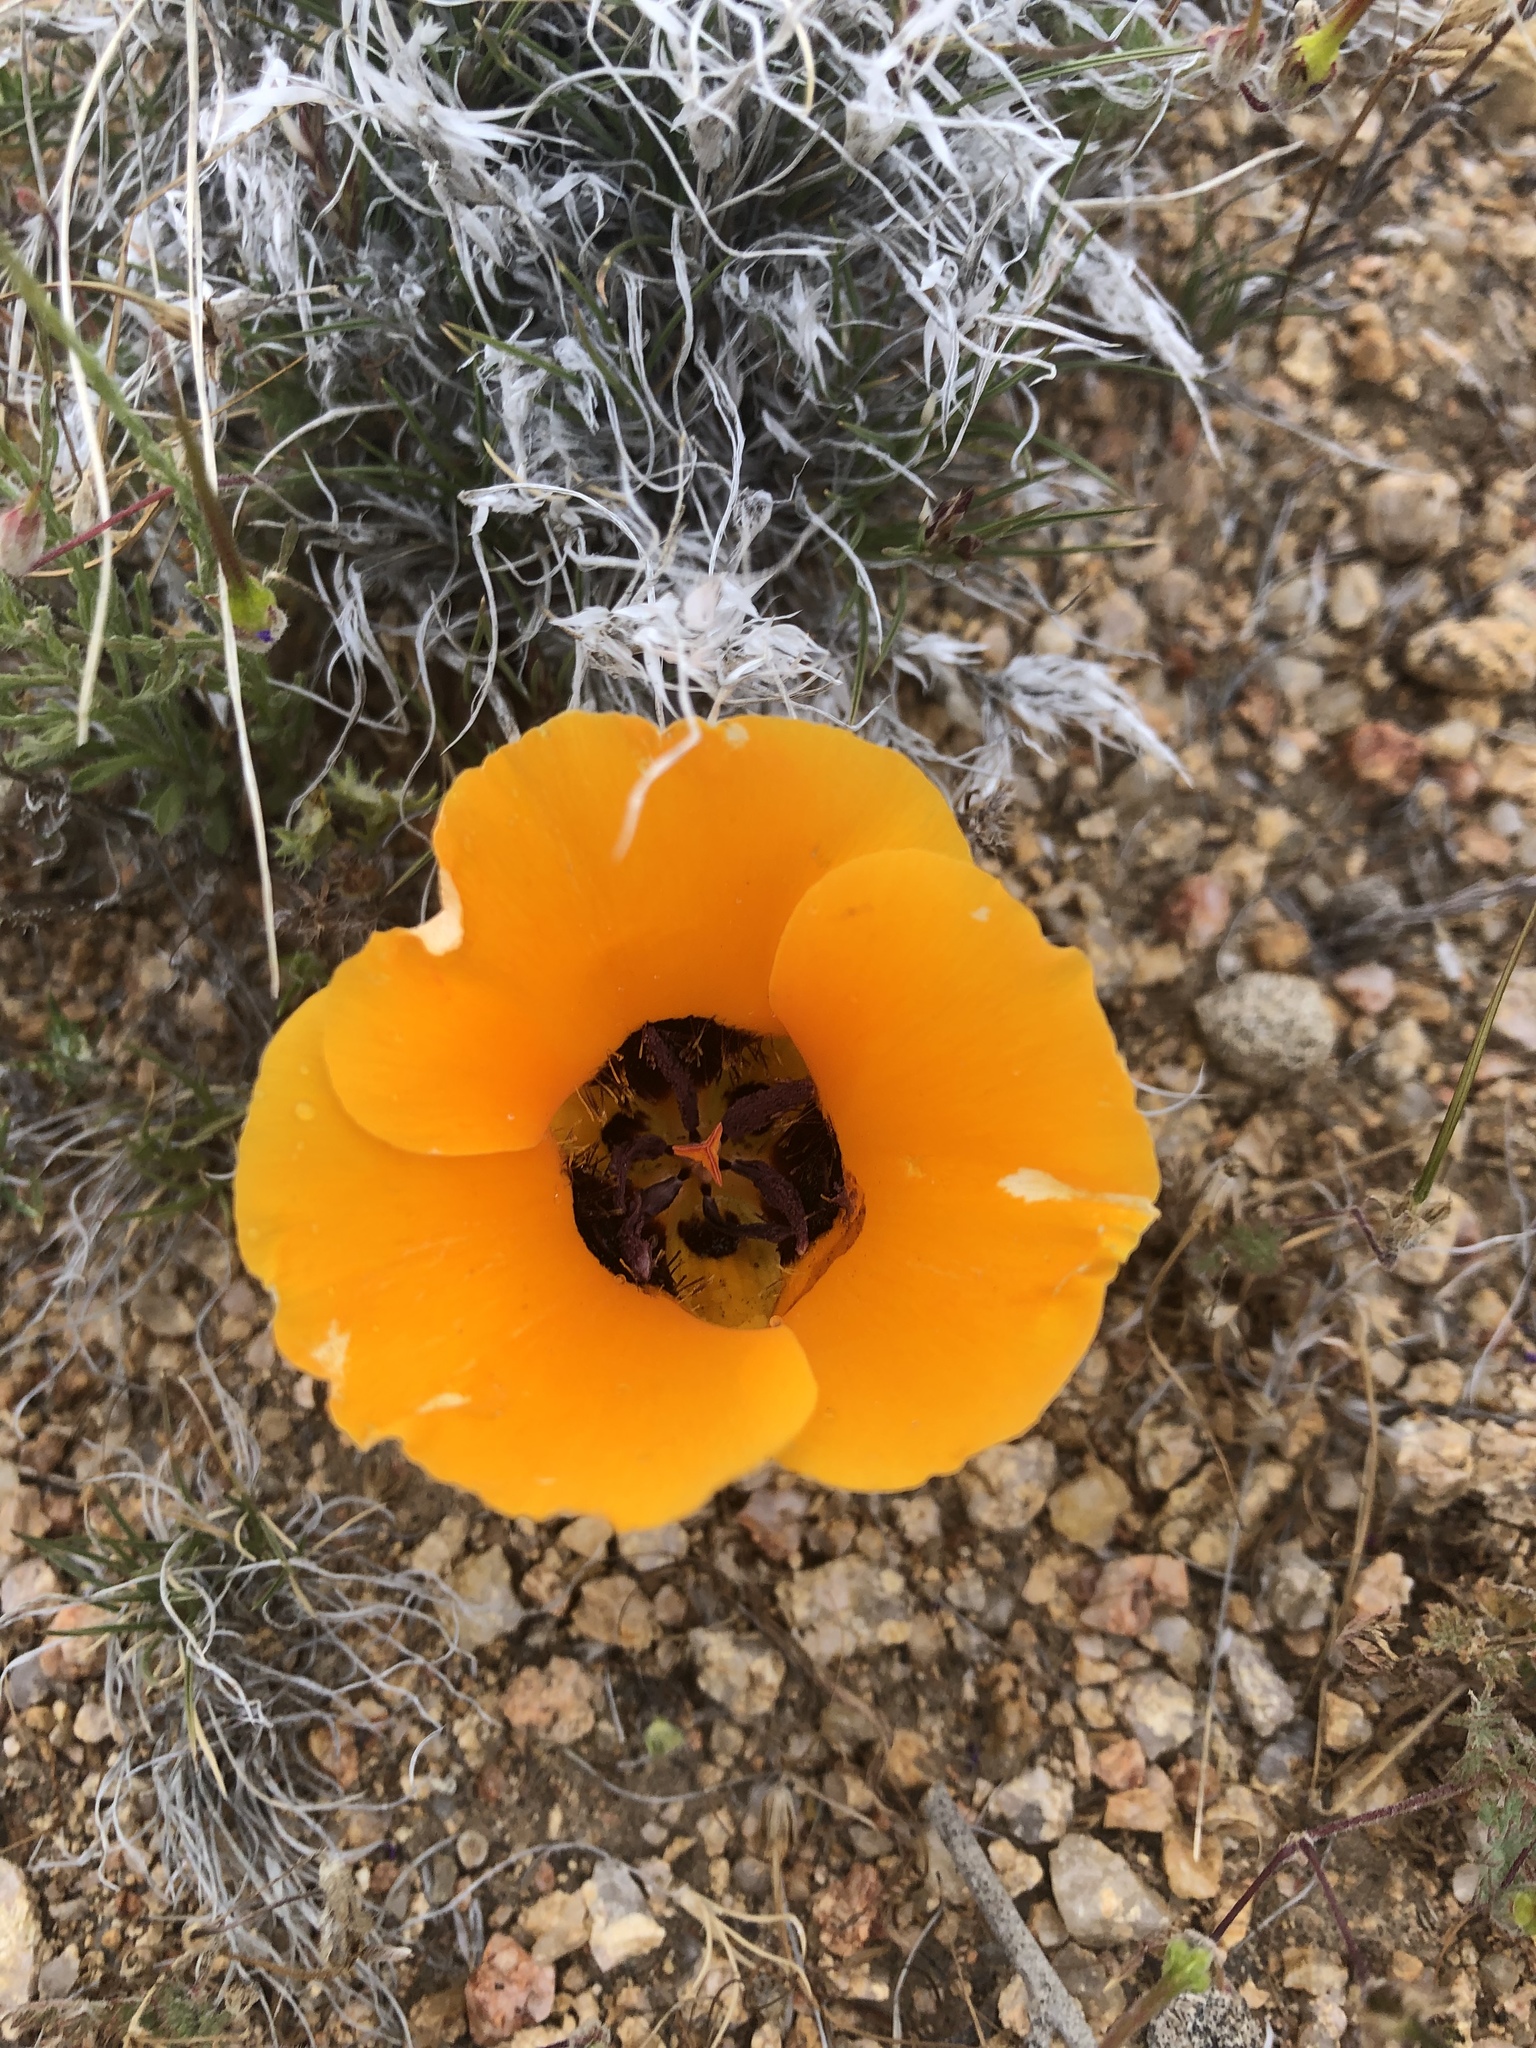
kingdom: Plantae
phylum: Tracheophyta
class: Liliopsida
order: Liliales
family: Liliaceae
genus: Calochortus
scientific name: Calochortus kennedyi
